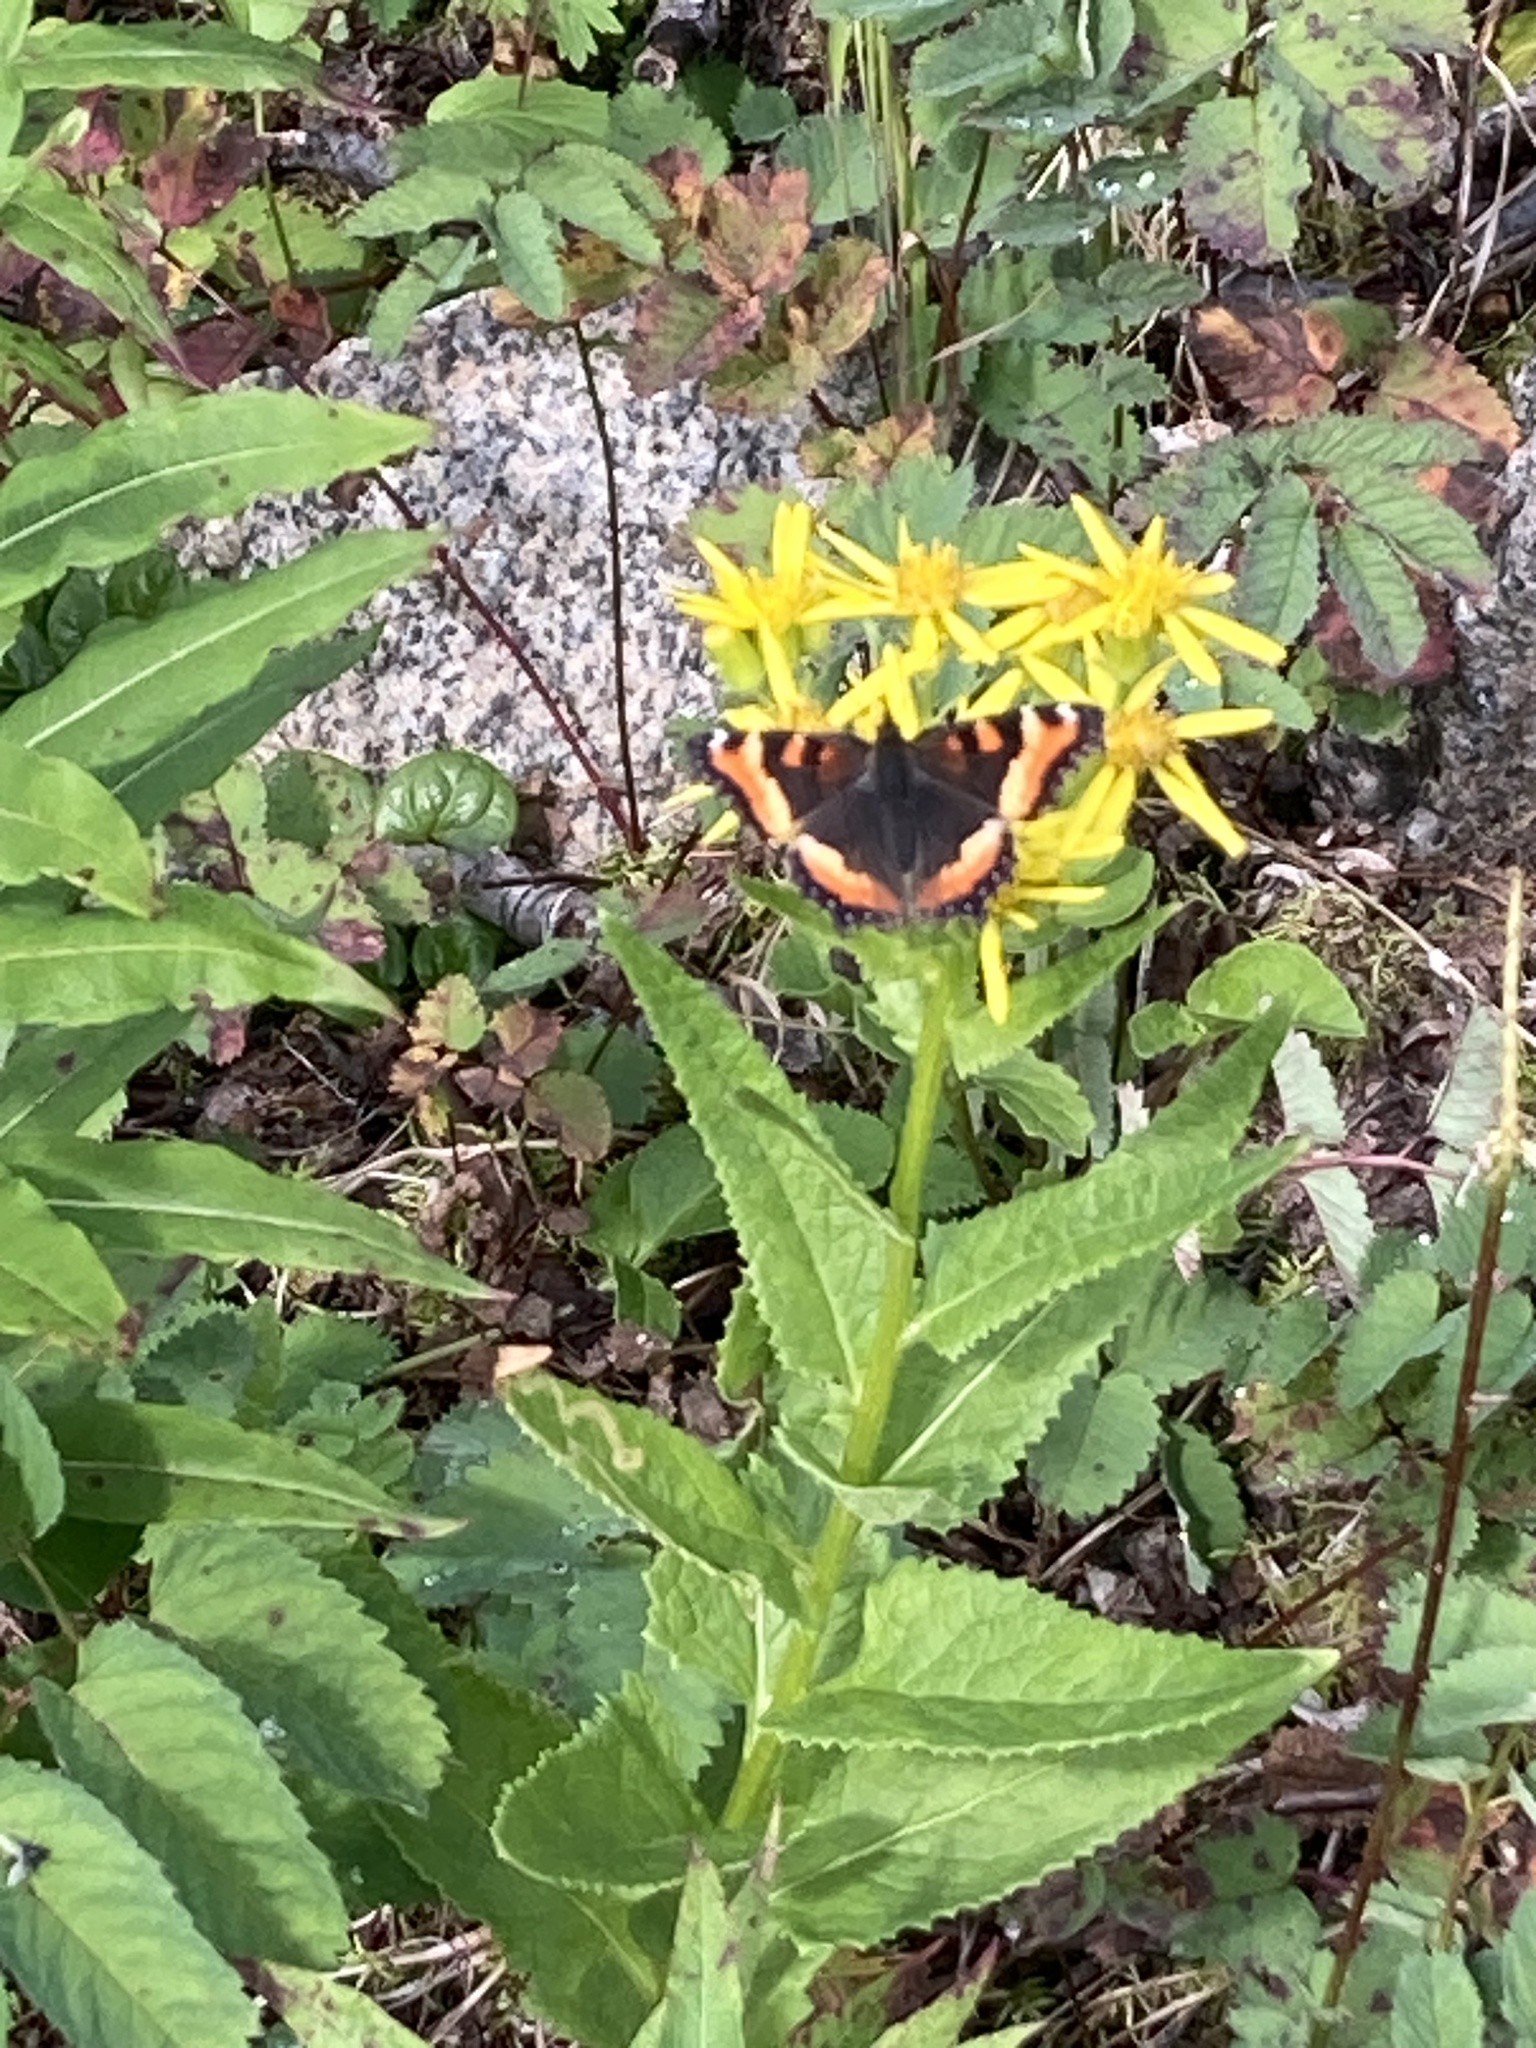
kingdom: Animalia
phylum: Arthropoda
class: Insecta
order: Lepidoptera
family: Nymphalidae
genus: Aglais
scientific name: Aglais milberti
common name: Milbert's tortoiseshell
